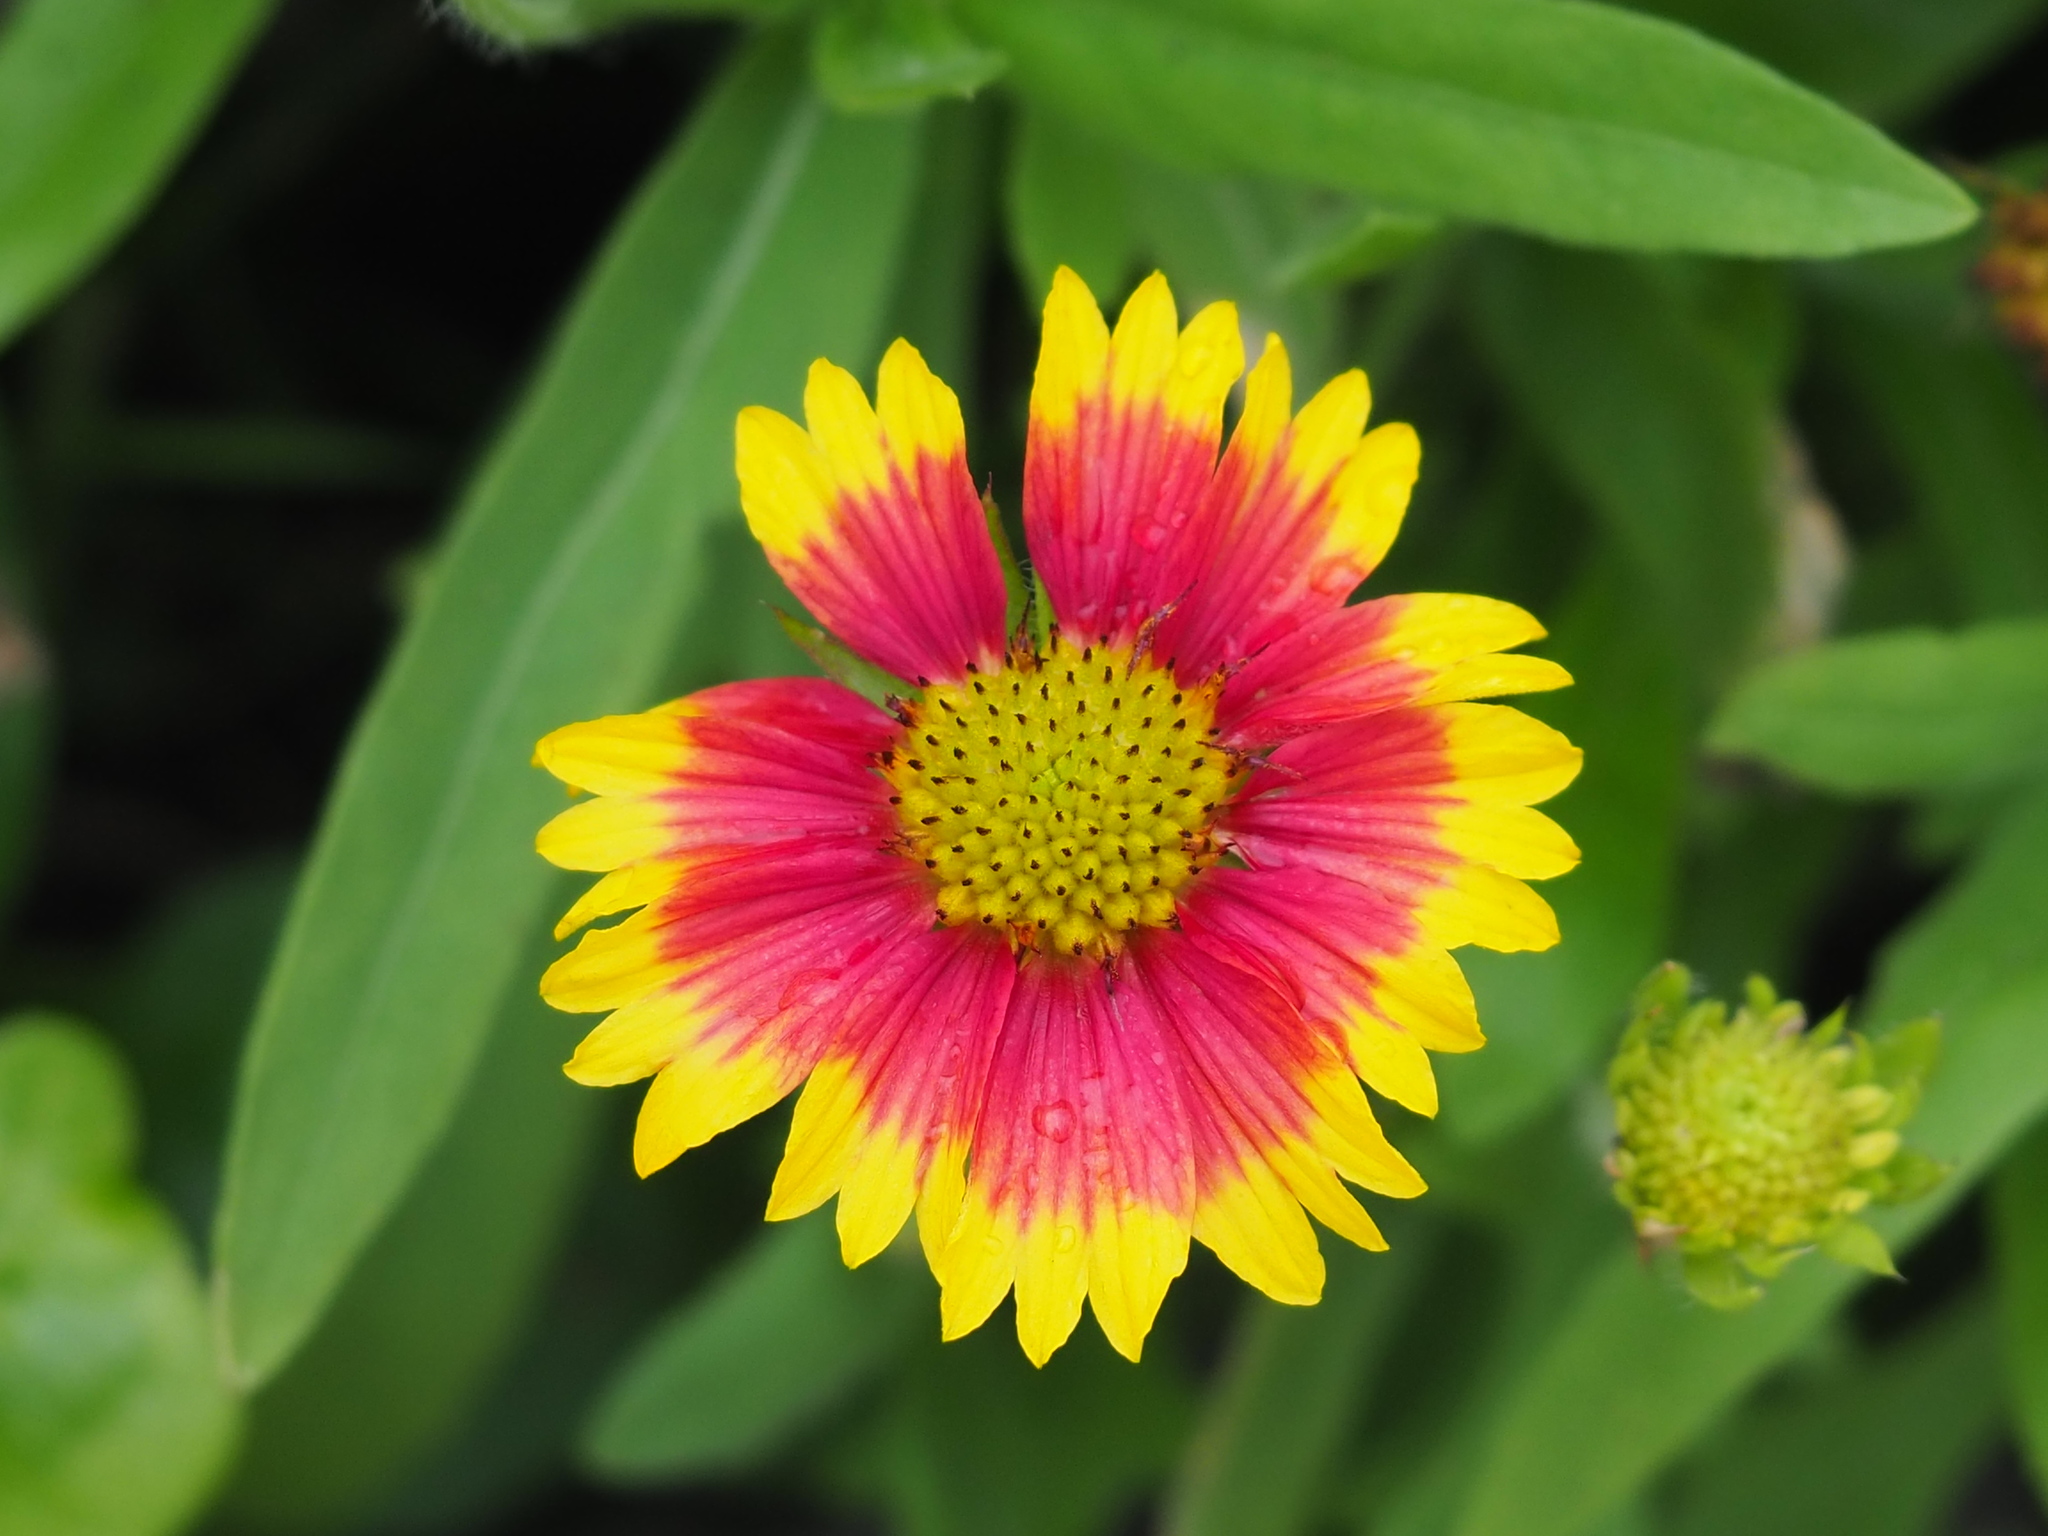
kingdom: Plantae
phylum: Tracheophyta
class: Magnoliopsida
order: Asterales
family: Asteraceae
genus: Gaillardia
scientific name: Gaillardia pulchella
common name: Firewheel
